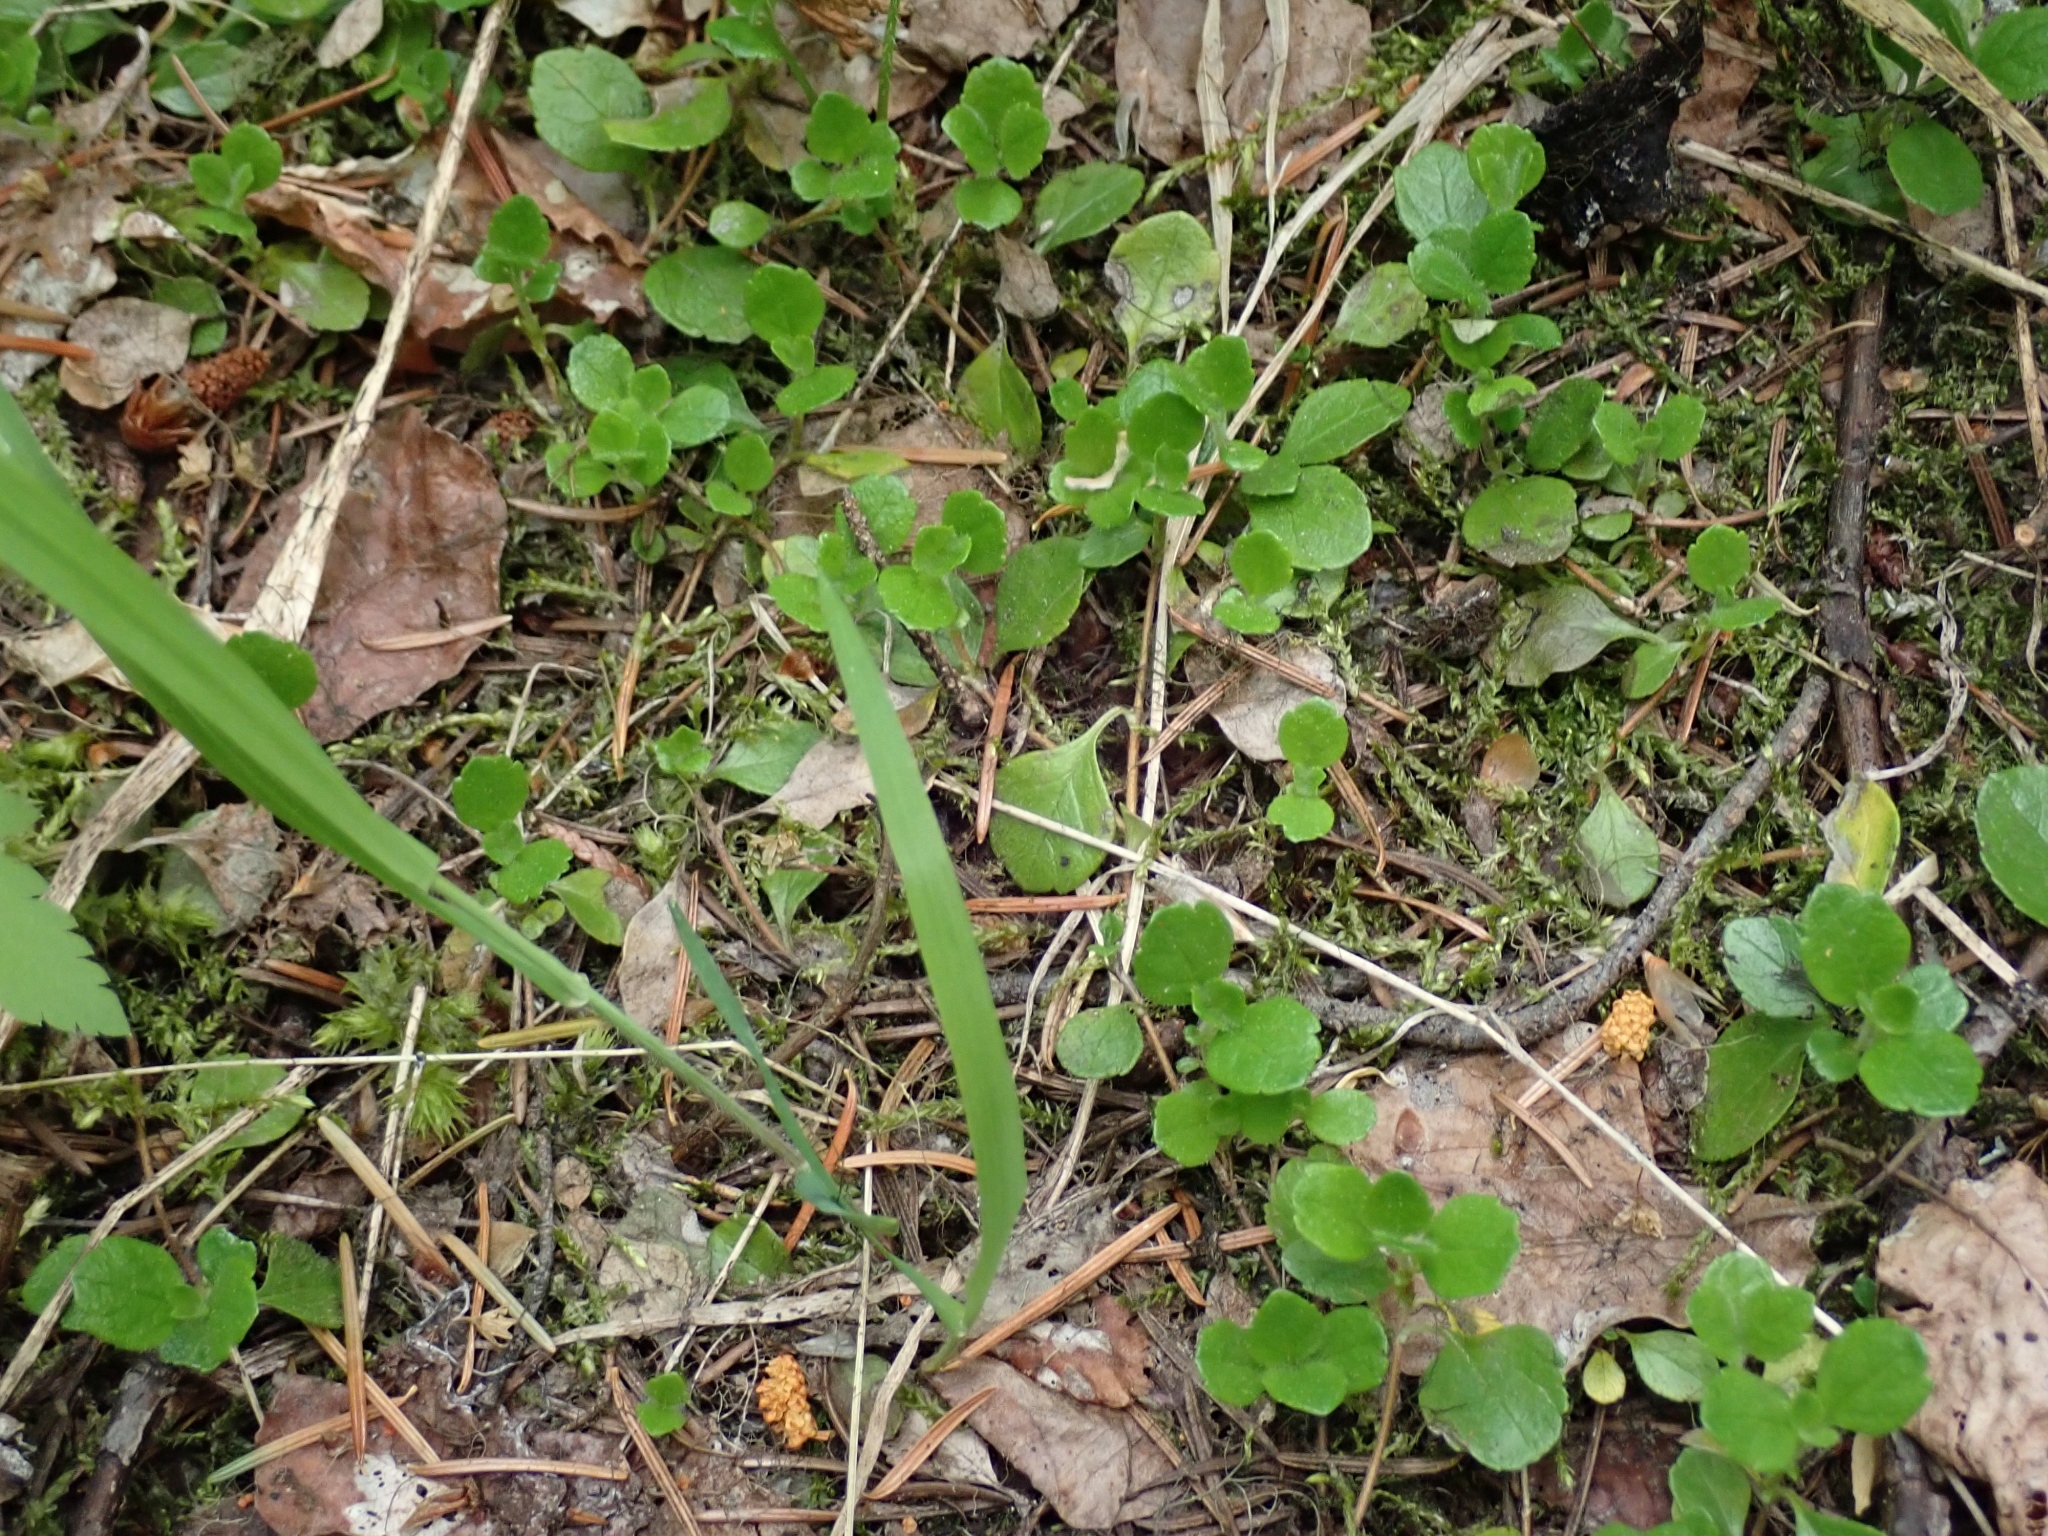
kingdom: Plantae
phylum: Tracheophyta
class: Magnoliopsida
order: Dipsacales
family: Caprifoliaceae
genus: Linnaea
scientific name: Linnaea borealis
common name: Twinflower
